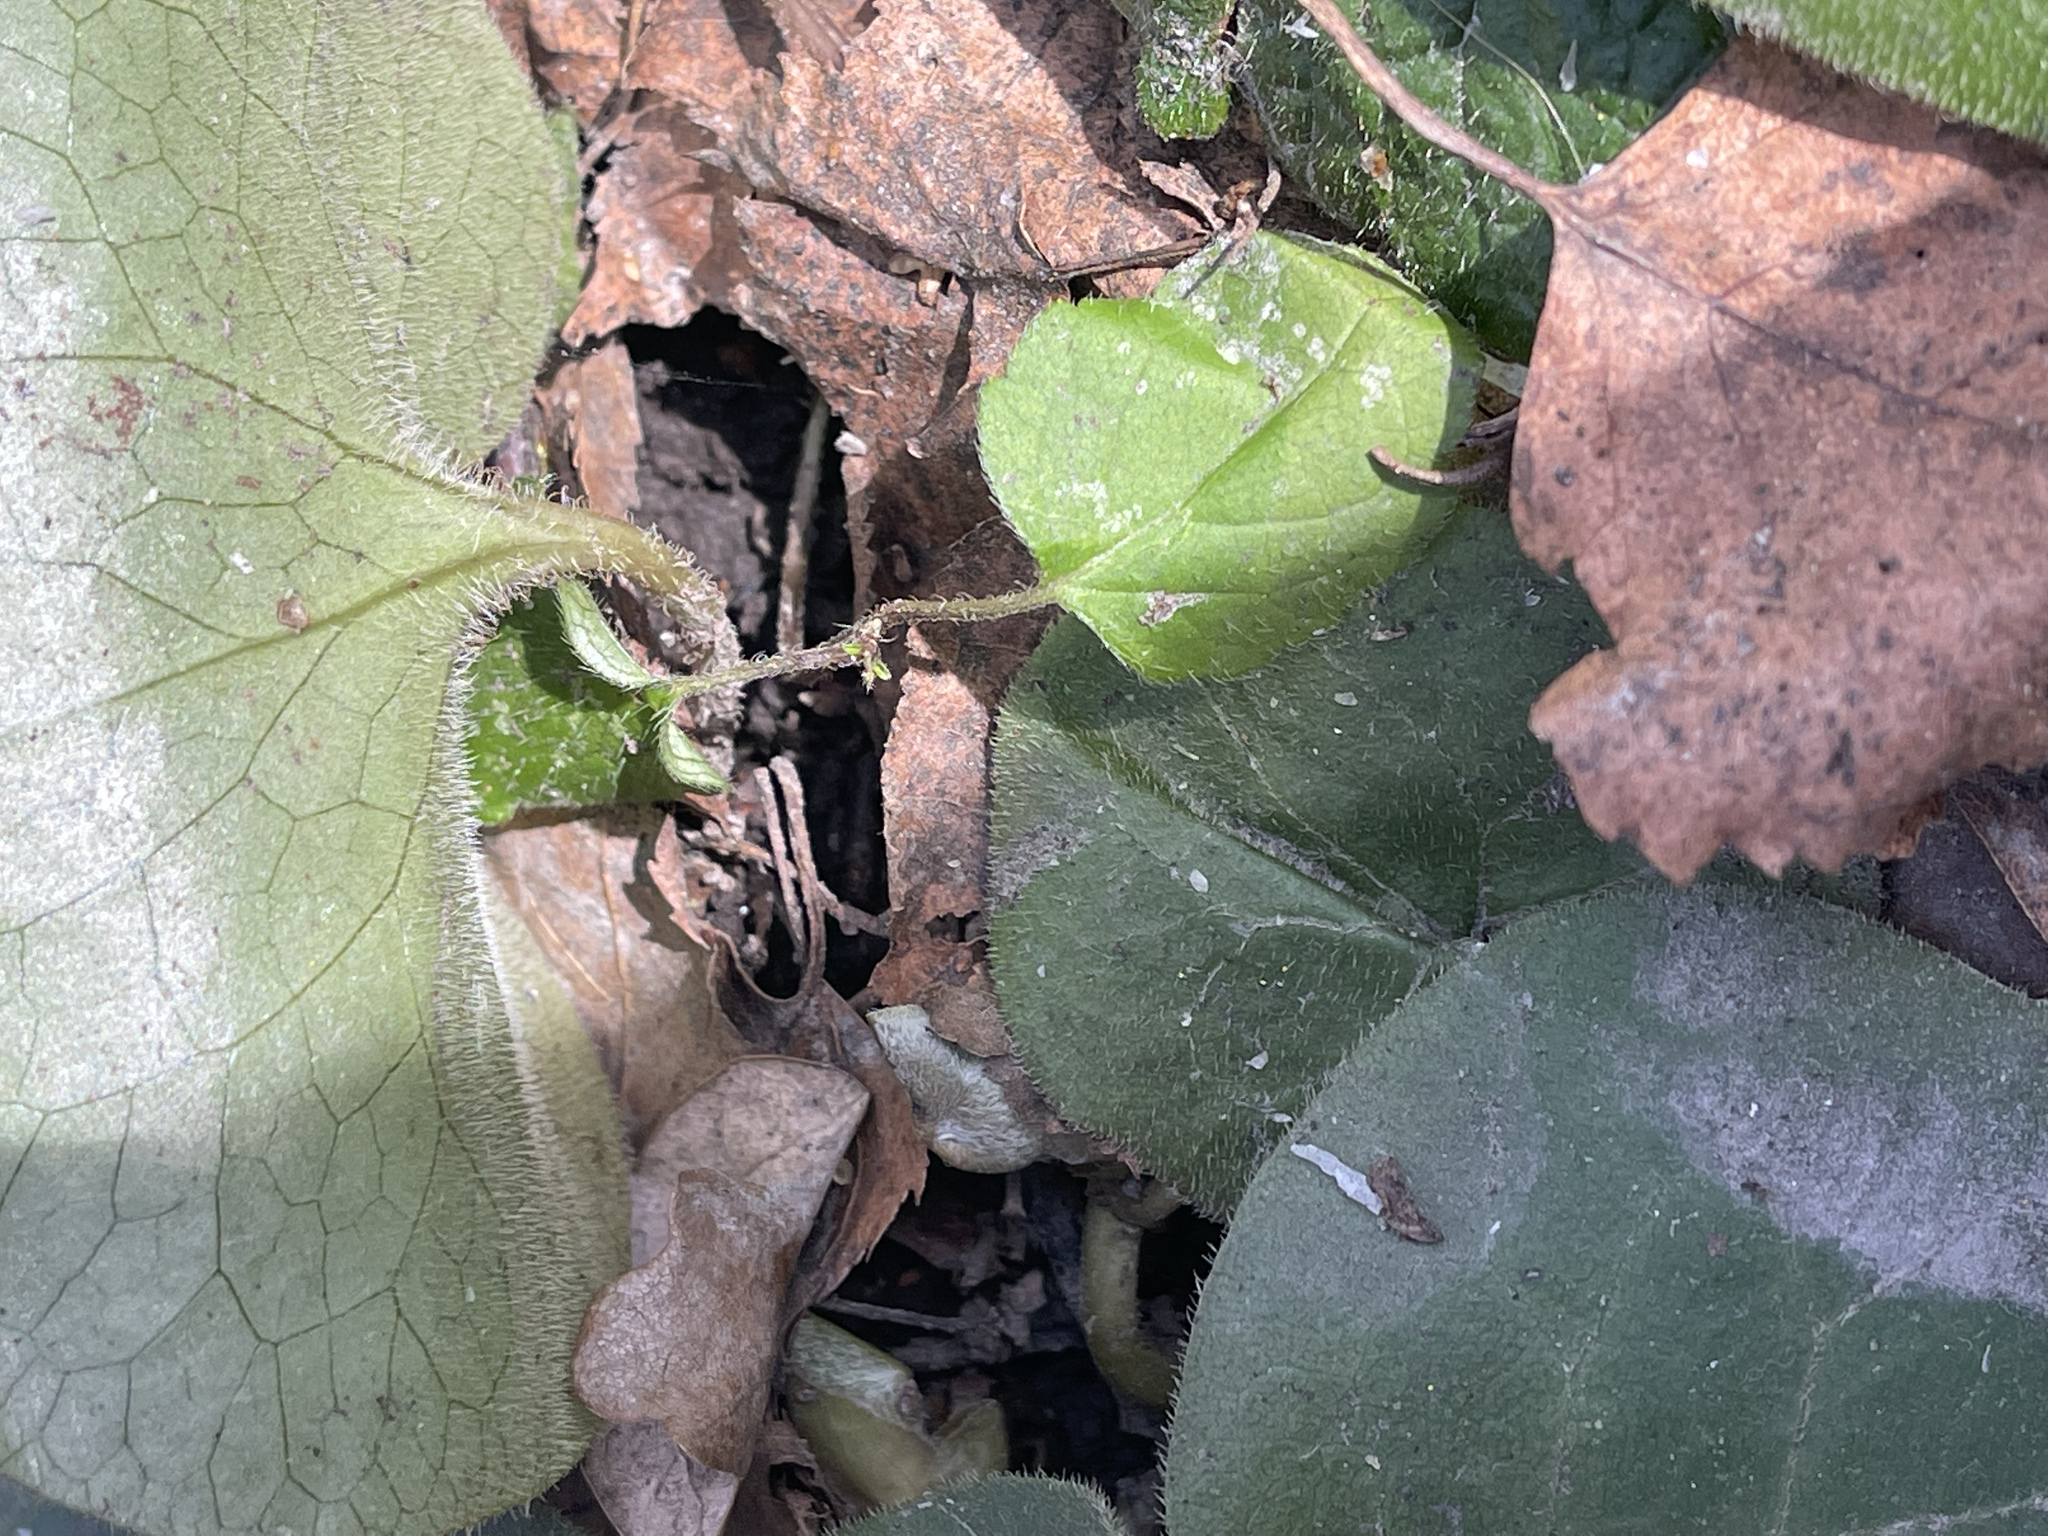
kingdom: Plantae
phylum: Tracheophyta
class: Magnoliopsida
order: Piperales
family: Aristolochiaceae
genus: Asarum
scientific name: Asarum europaeum
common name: Asarabacca
